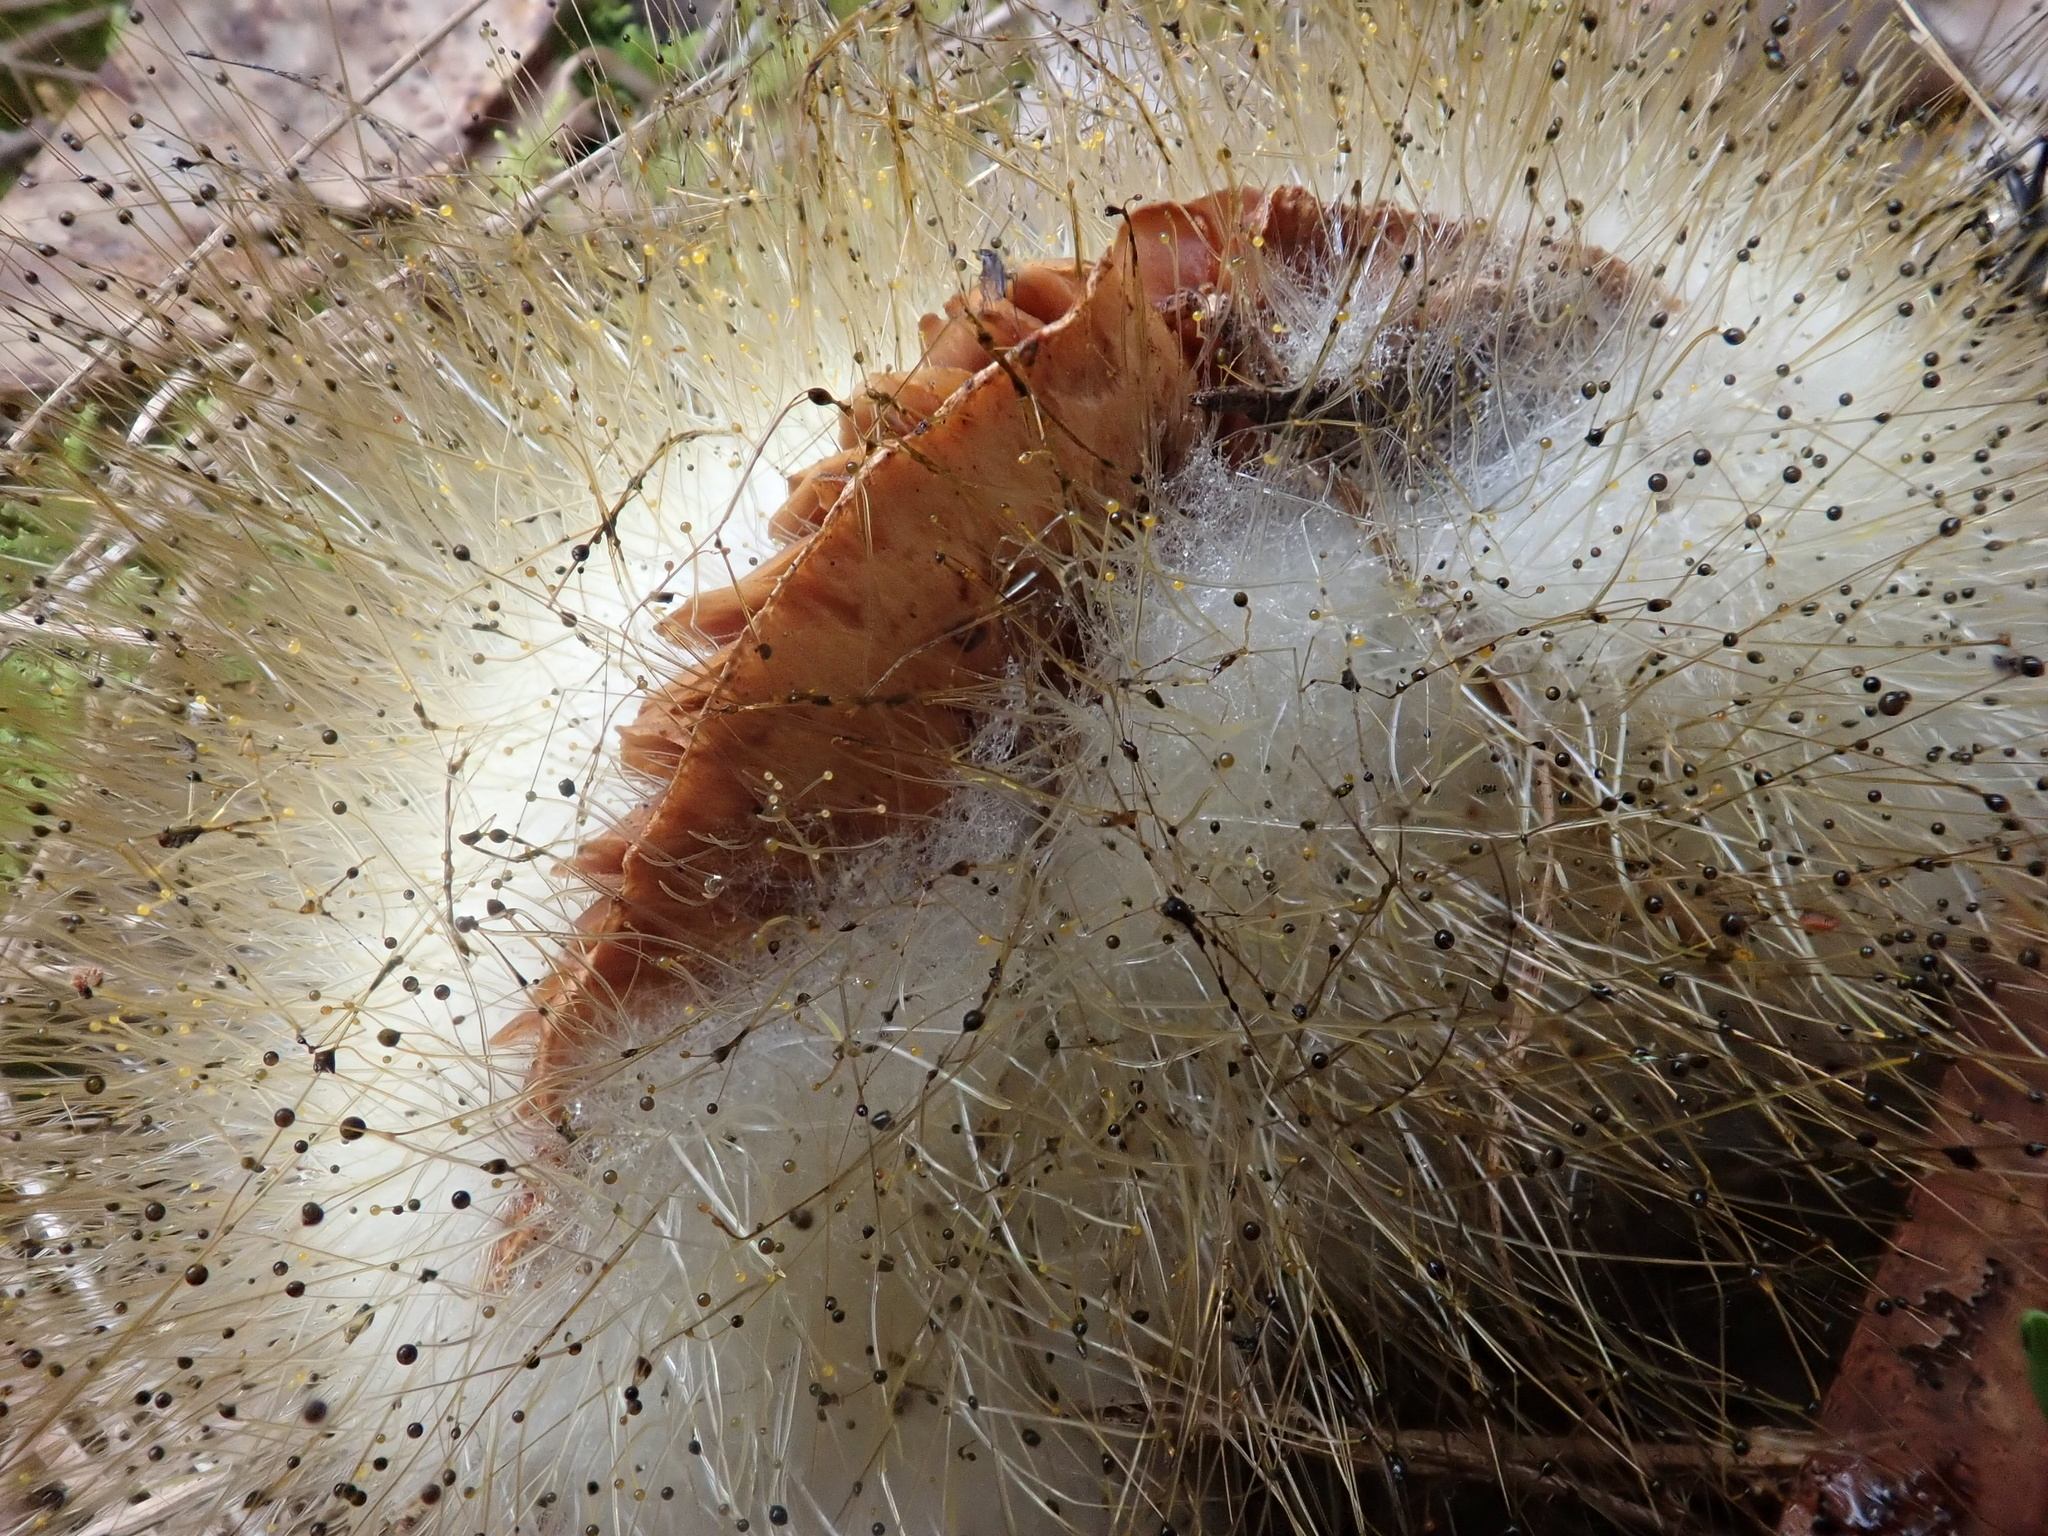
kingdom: Fungi
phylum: Mucoromycota
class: Mucoromycetes
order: Mucorales
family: Phycomycetaceae
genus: Spinellus
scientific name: Spinellus fusiger
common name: Bonnet mould
